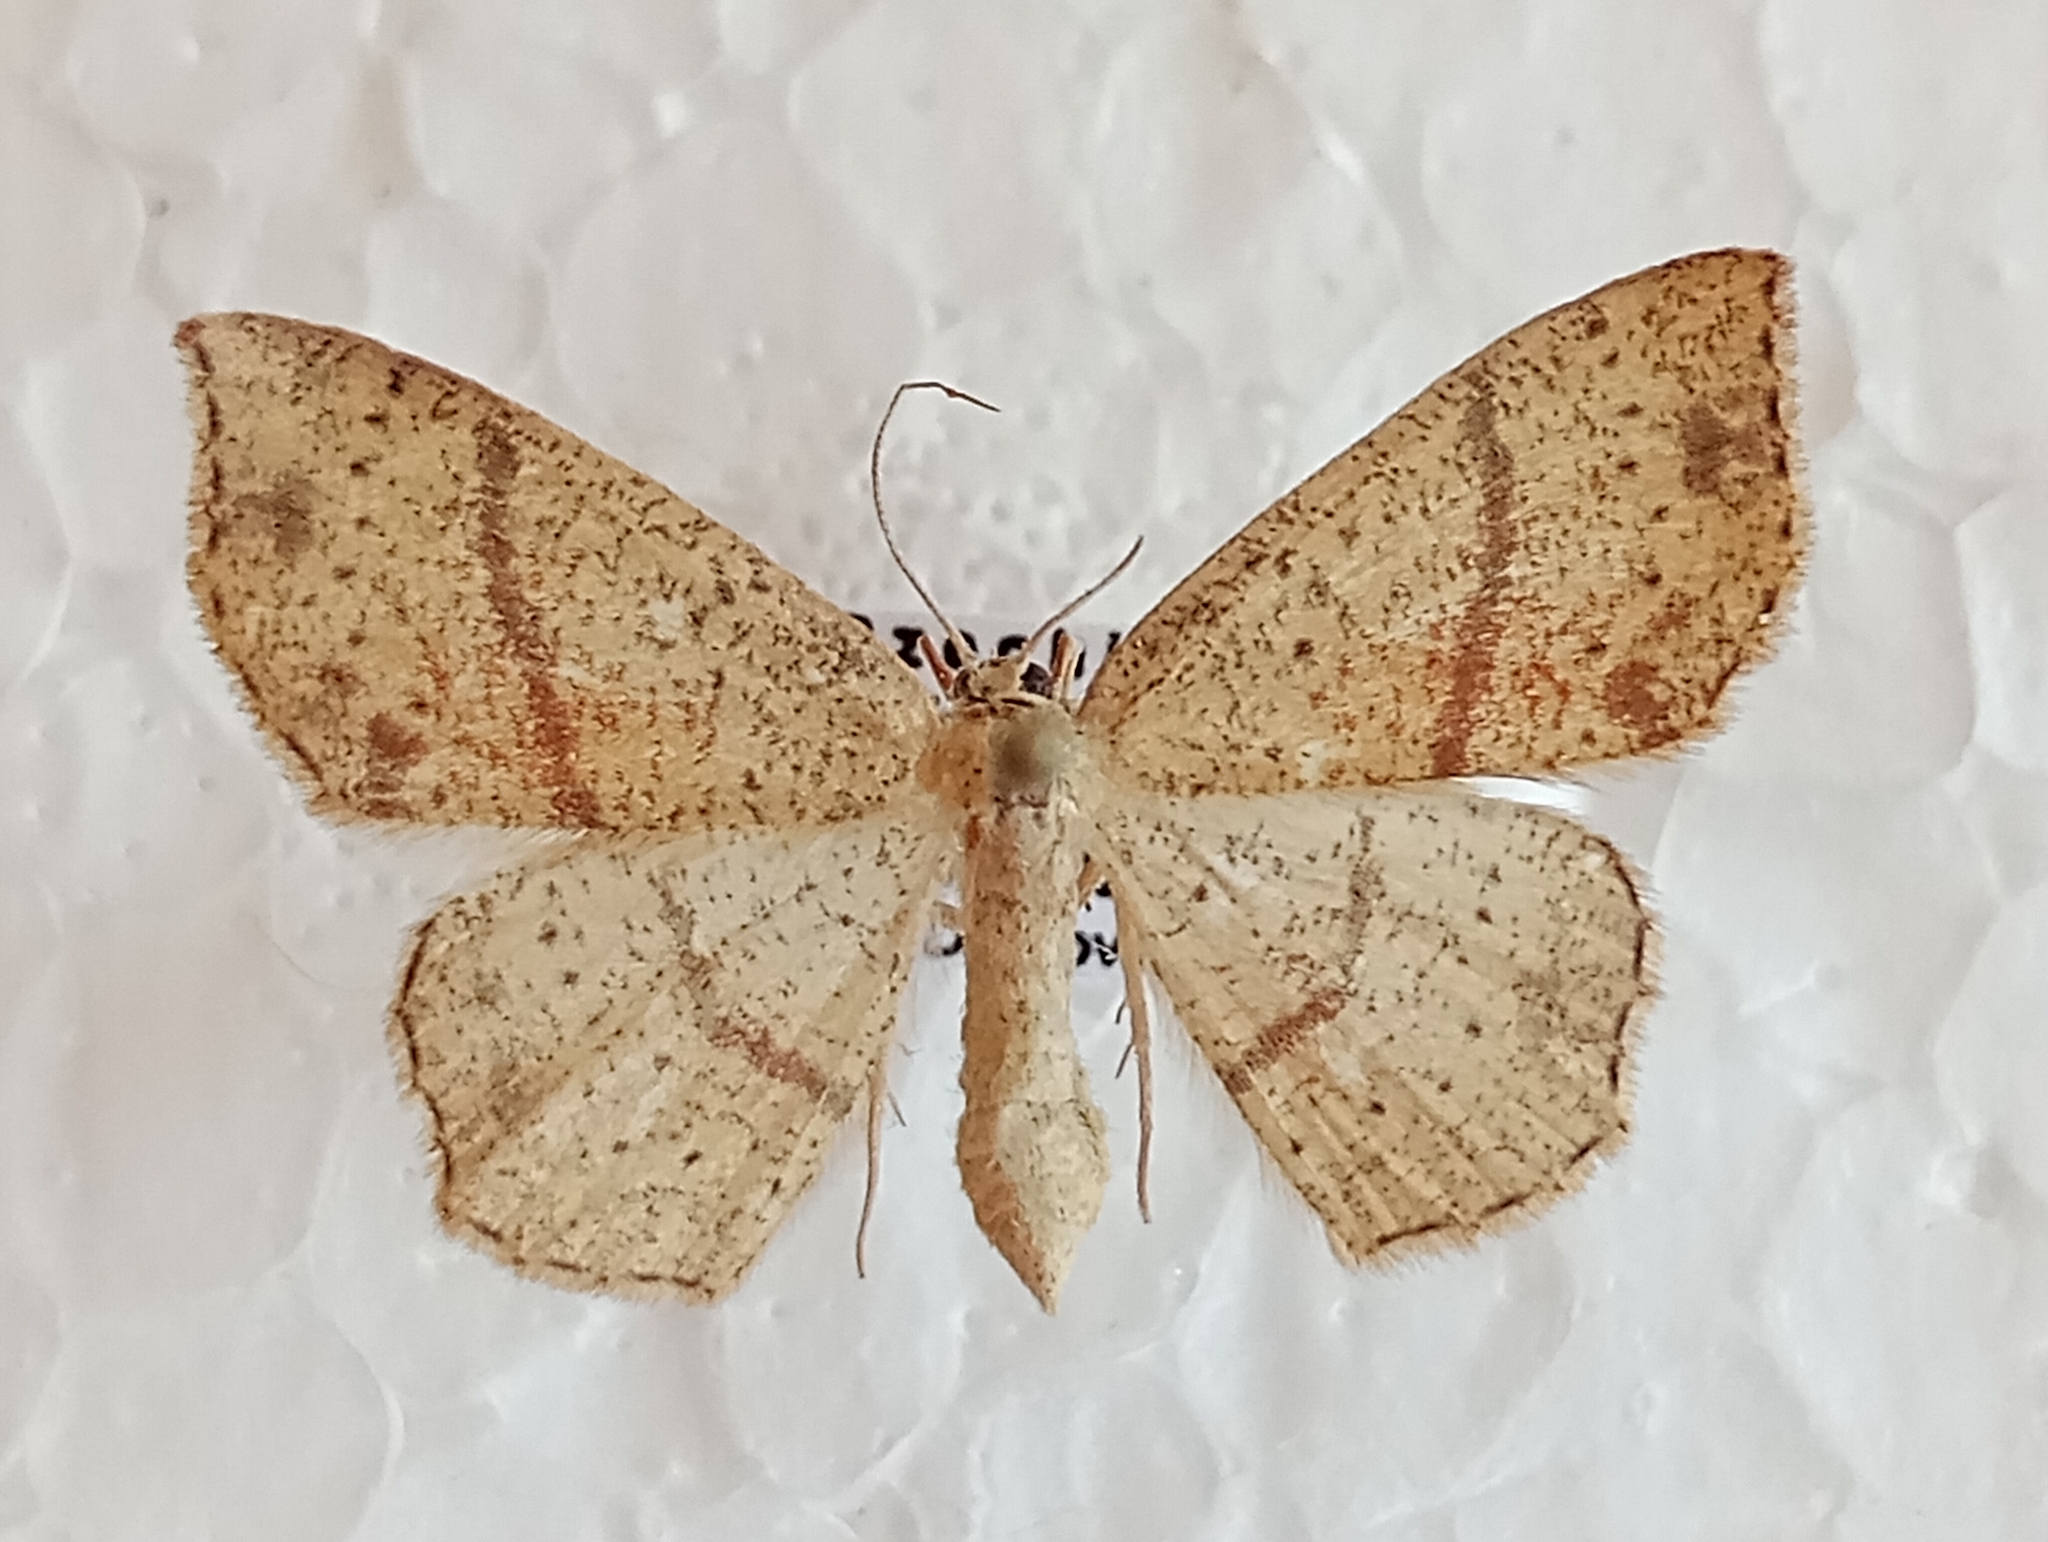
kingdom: Animalia
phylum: Arthropoda
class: Insecta
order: Lepidoptera
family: Geometridae
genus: Cyclophora
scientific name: Cyclophora punctaria
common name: Maiden's blush
